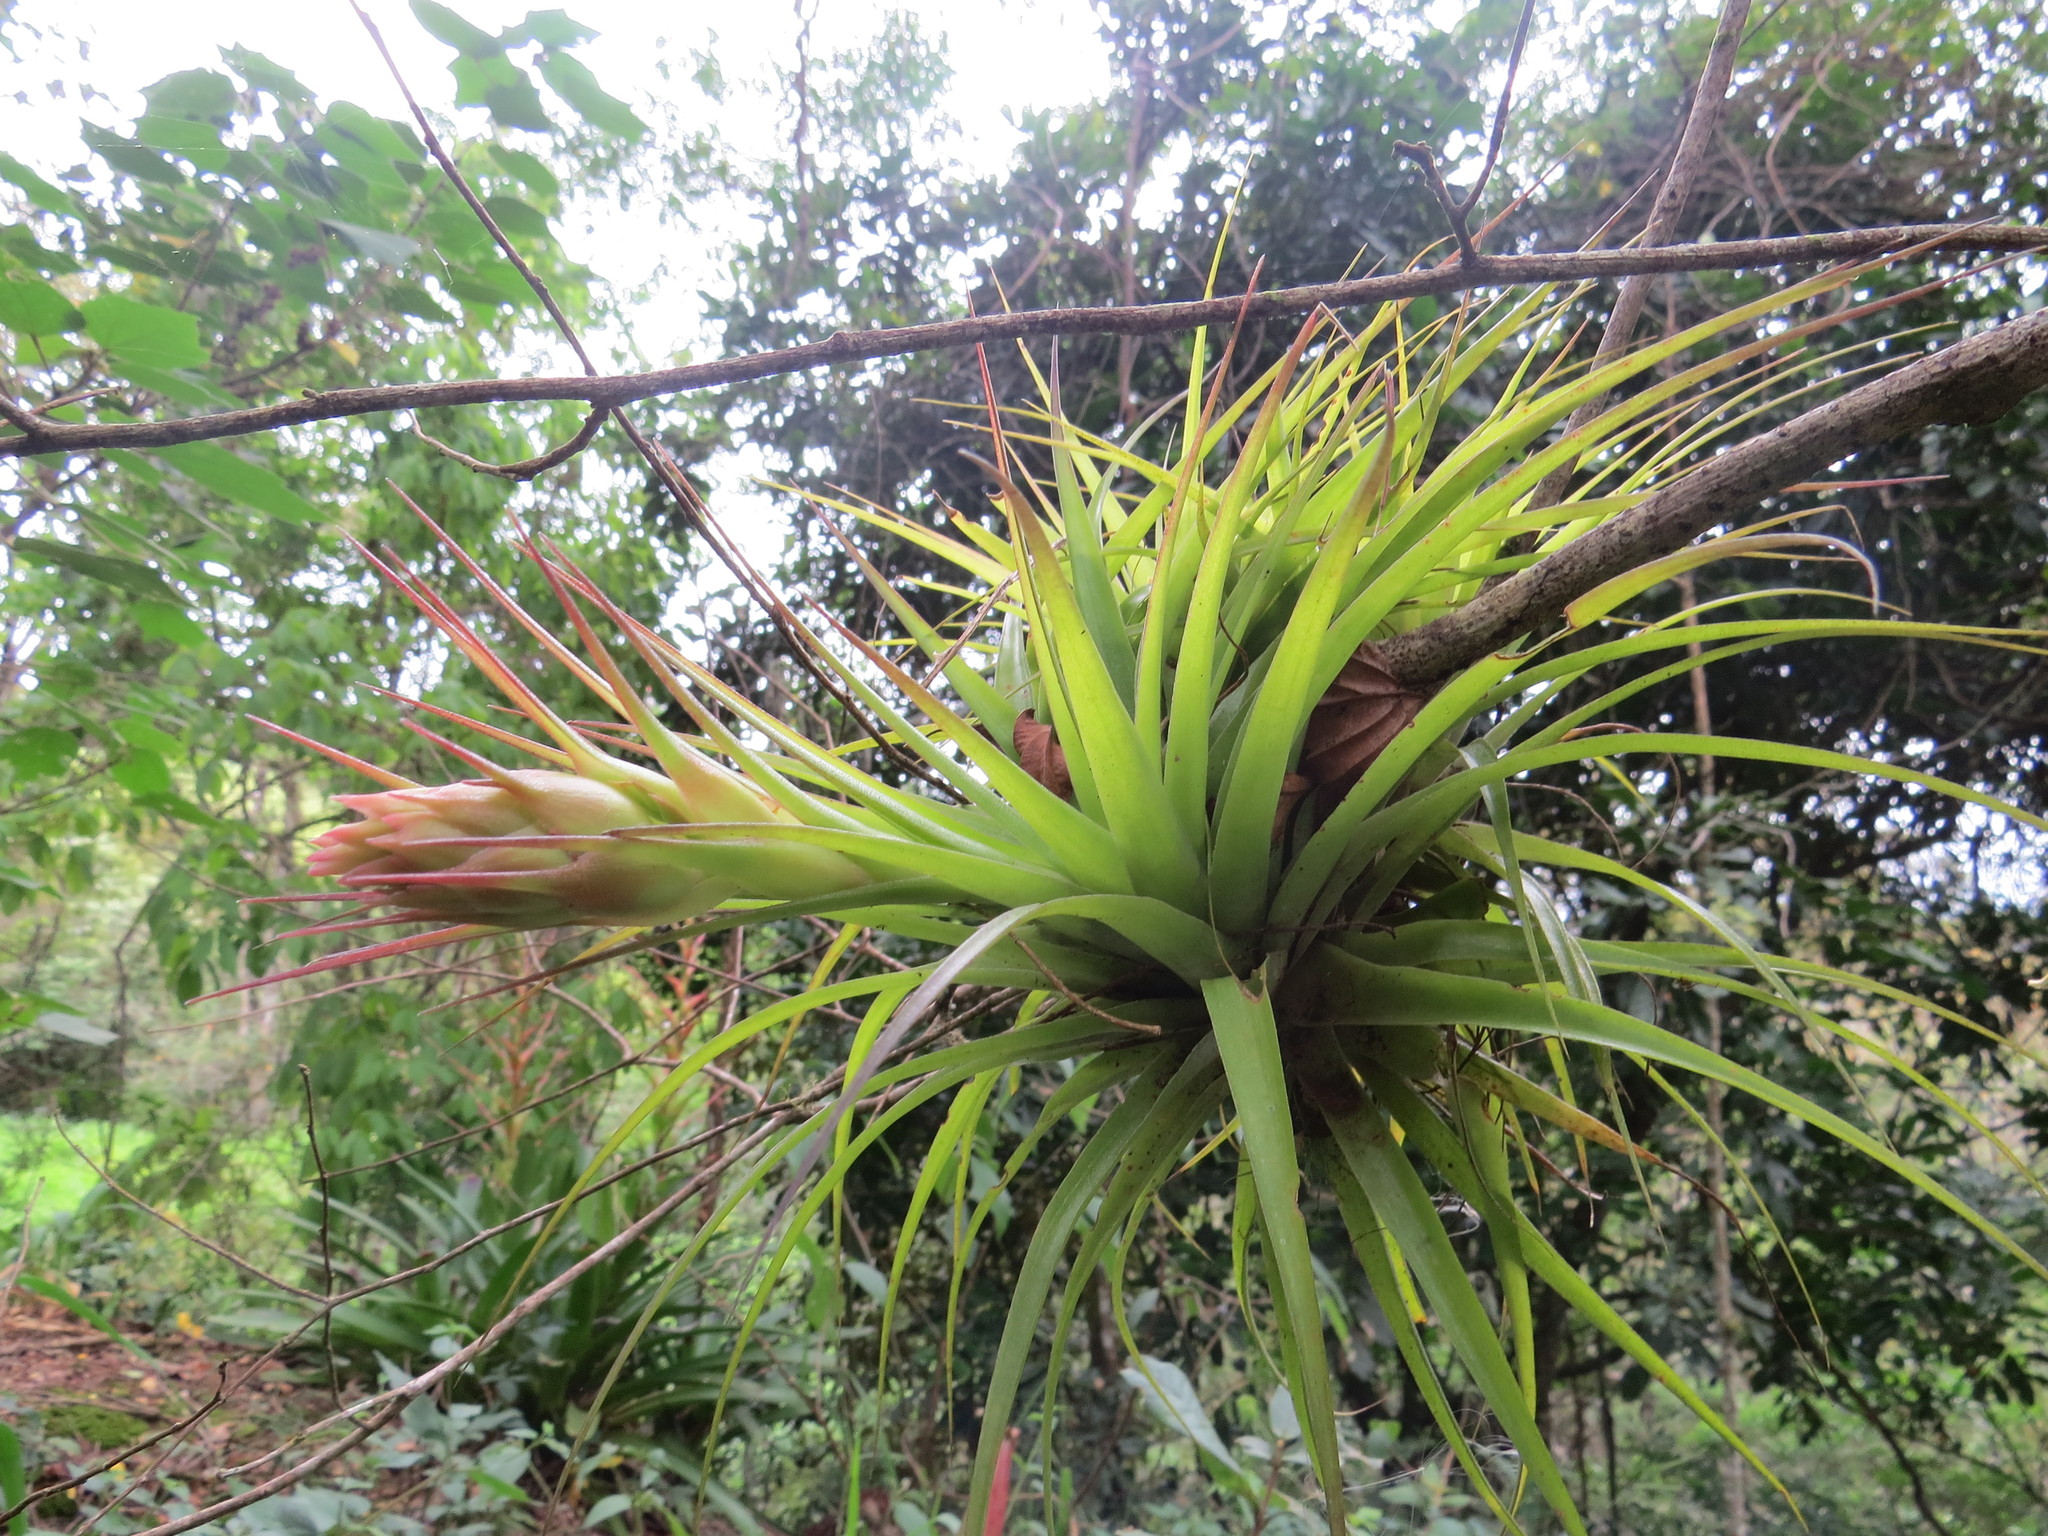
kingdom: Plantae
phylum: Tracheophyta
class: Liliopsida
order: Poales
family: Bromeliaceae
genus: Tillandsia
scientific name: Tillandsia geminiflora
